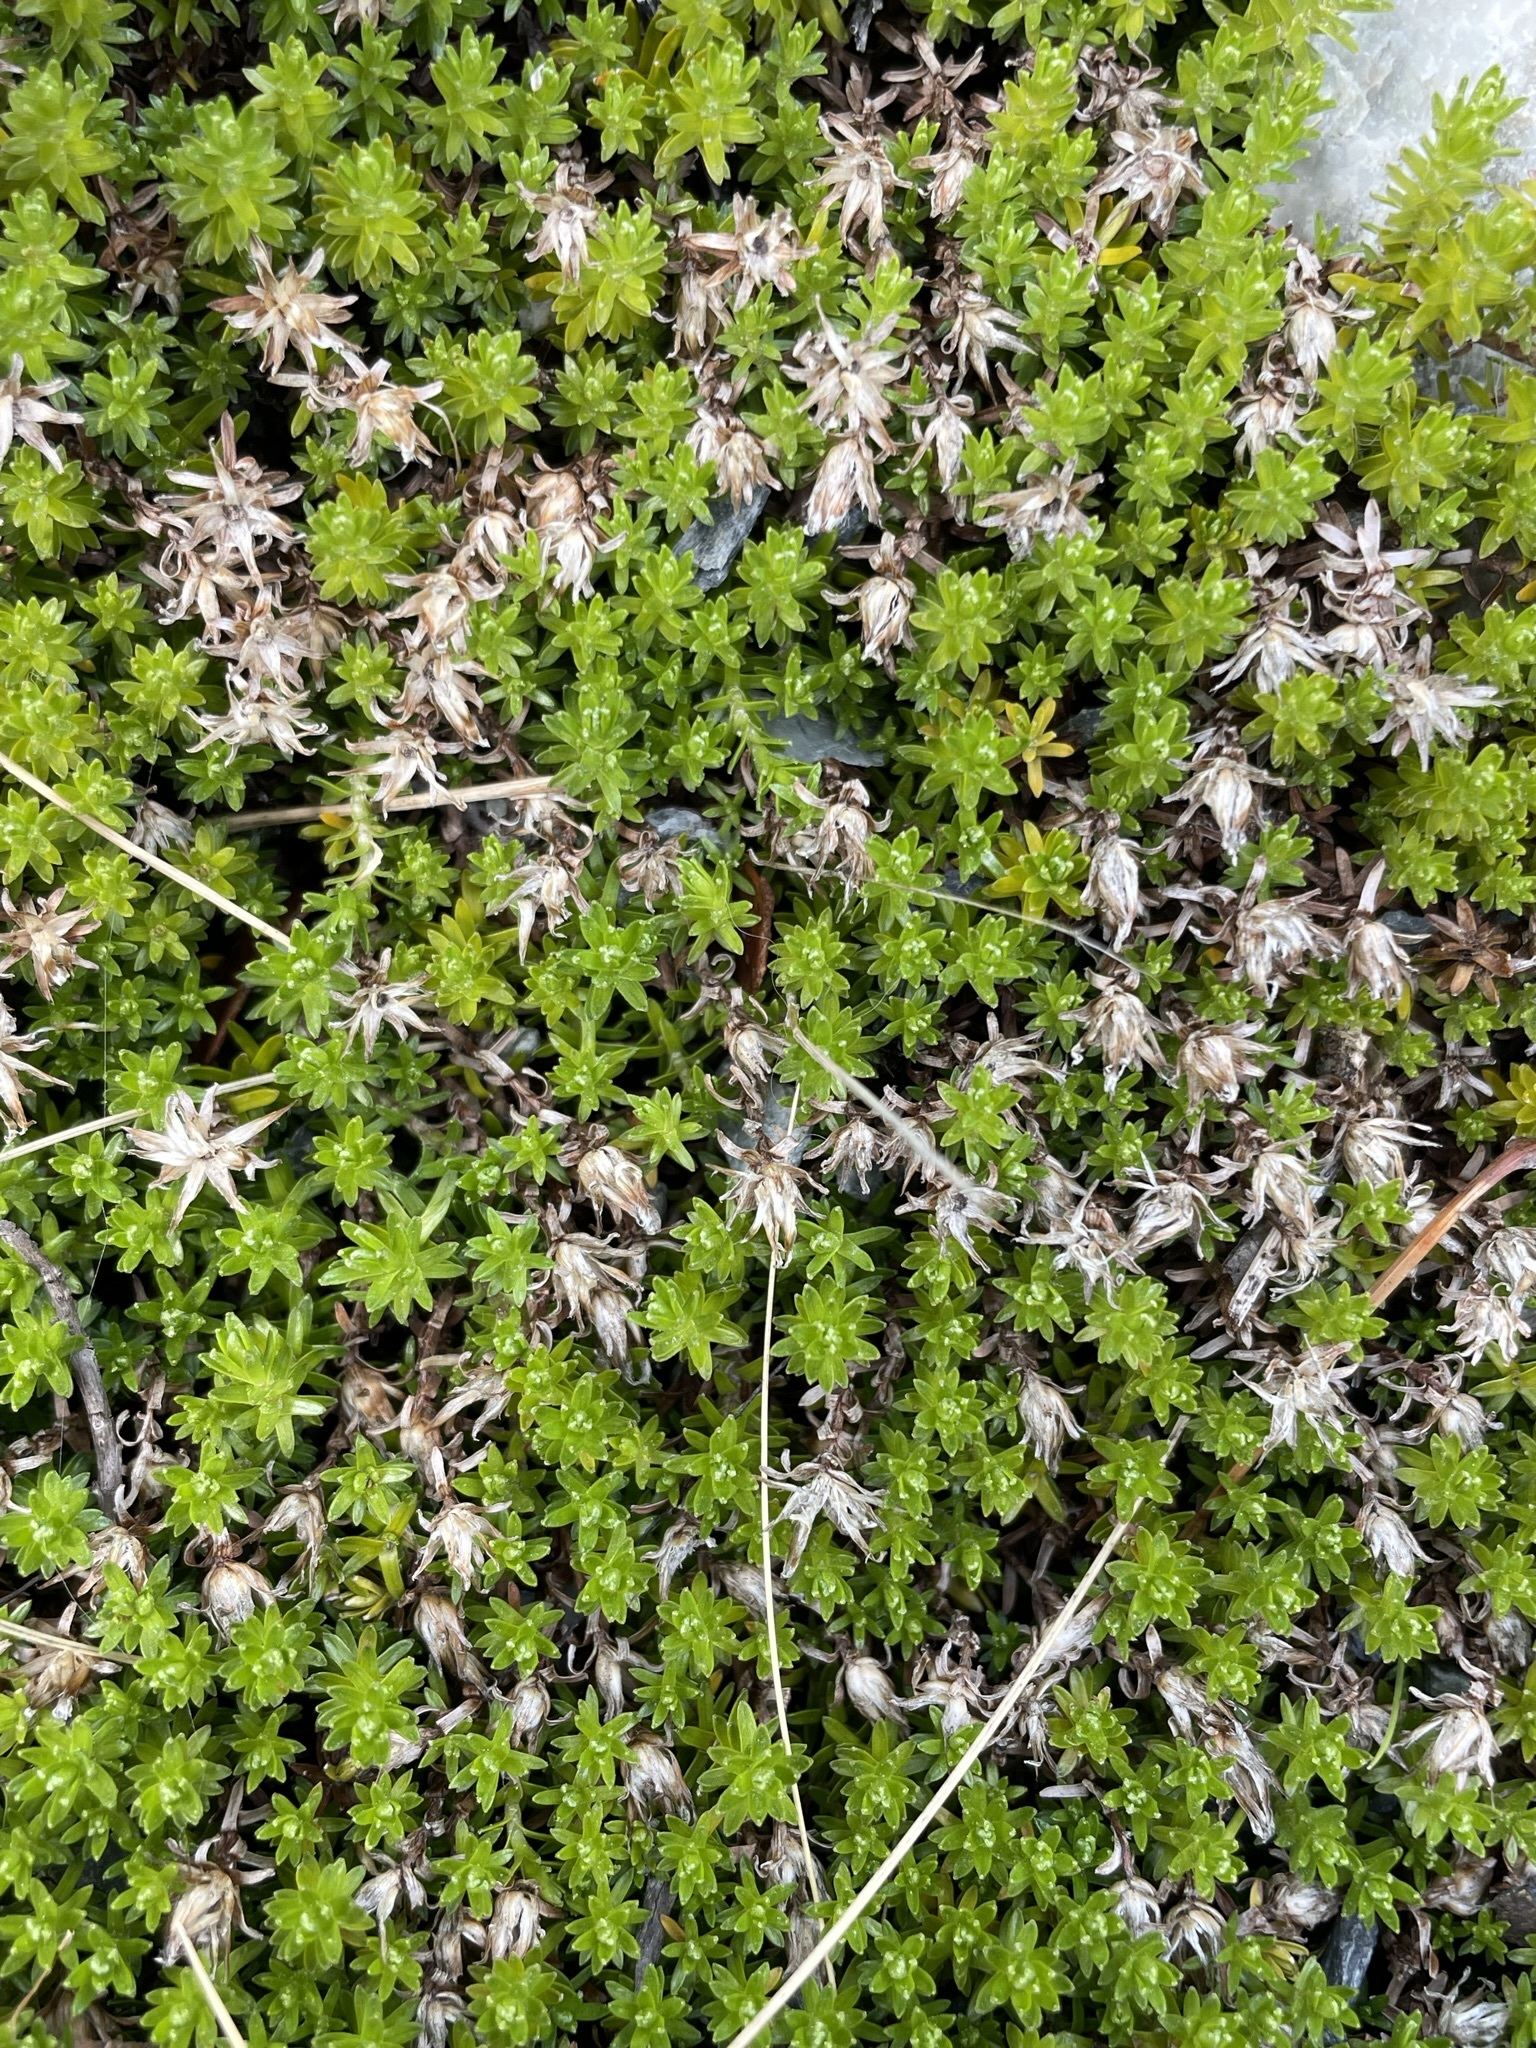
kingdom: Plantae
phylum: Tracheophyta
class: Magnoliopsida
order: Asterales
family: Asteraceae
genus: Raoulia
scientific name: Raoulia glabra
